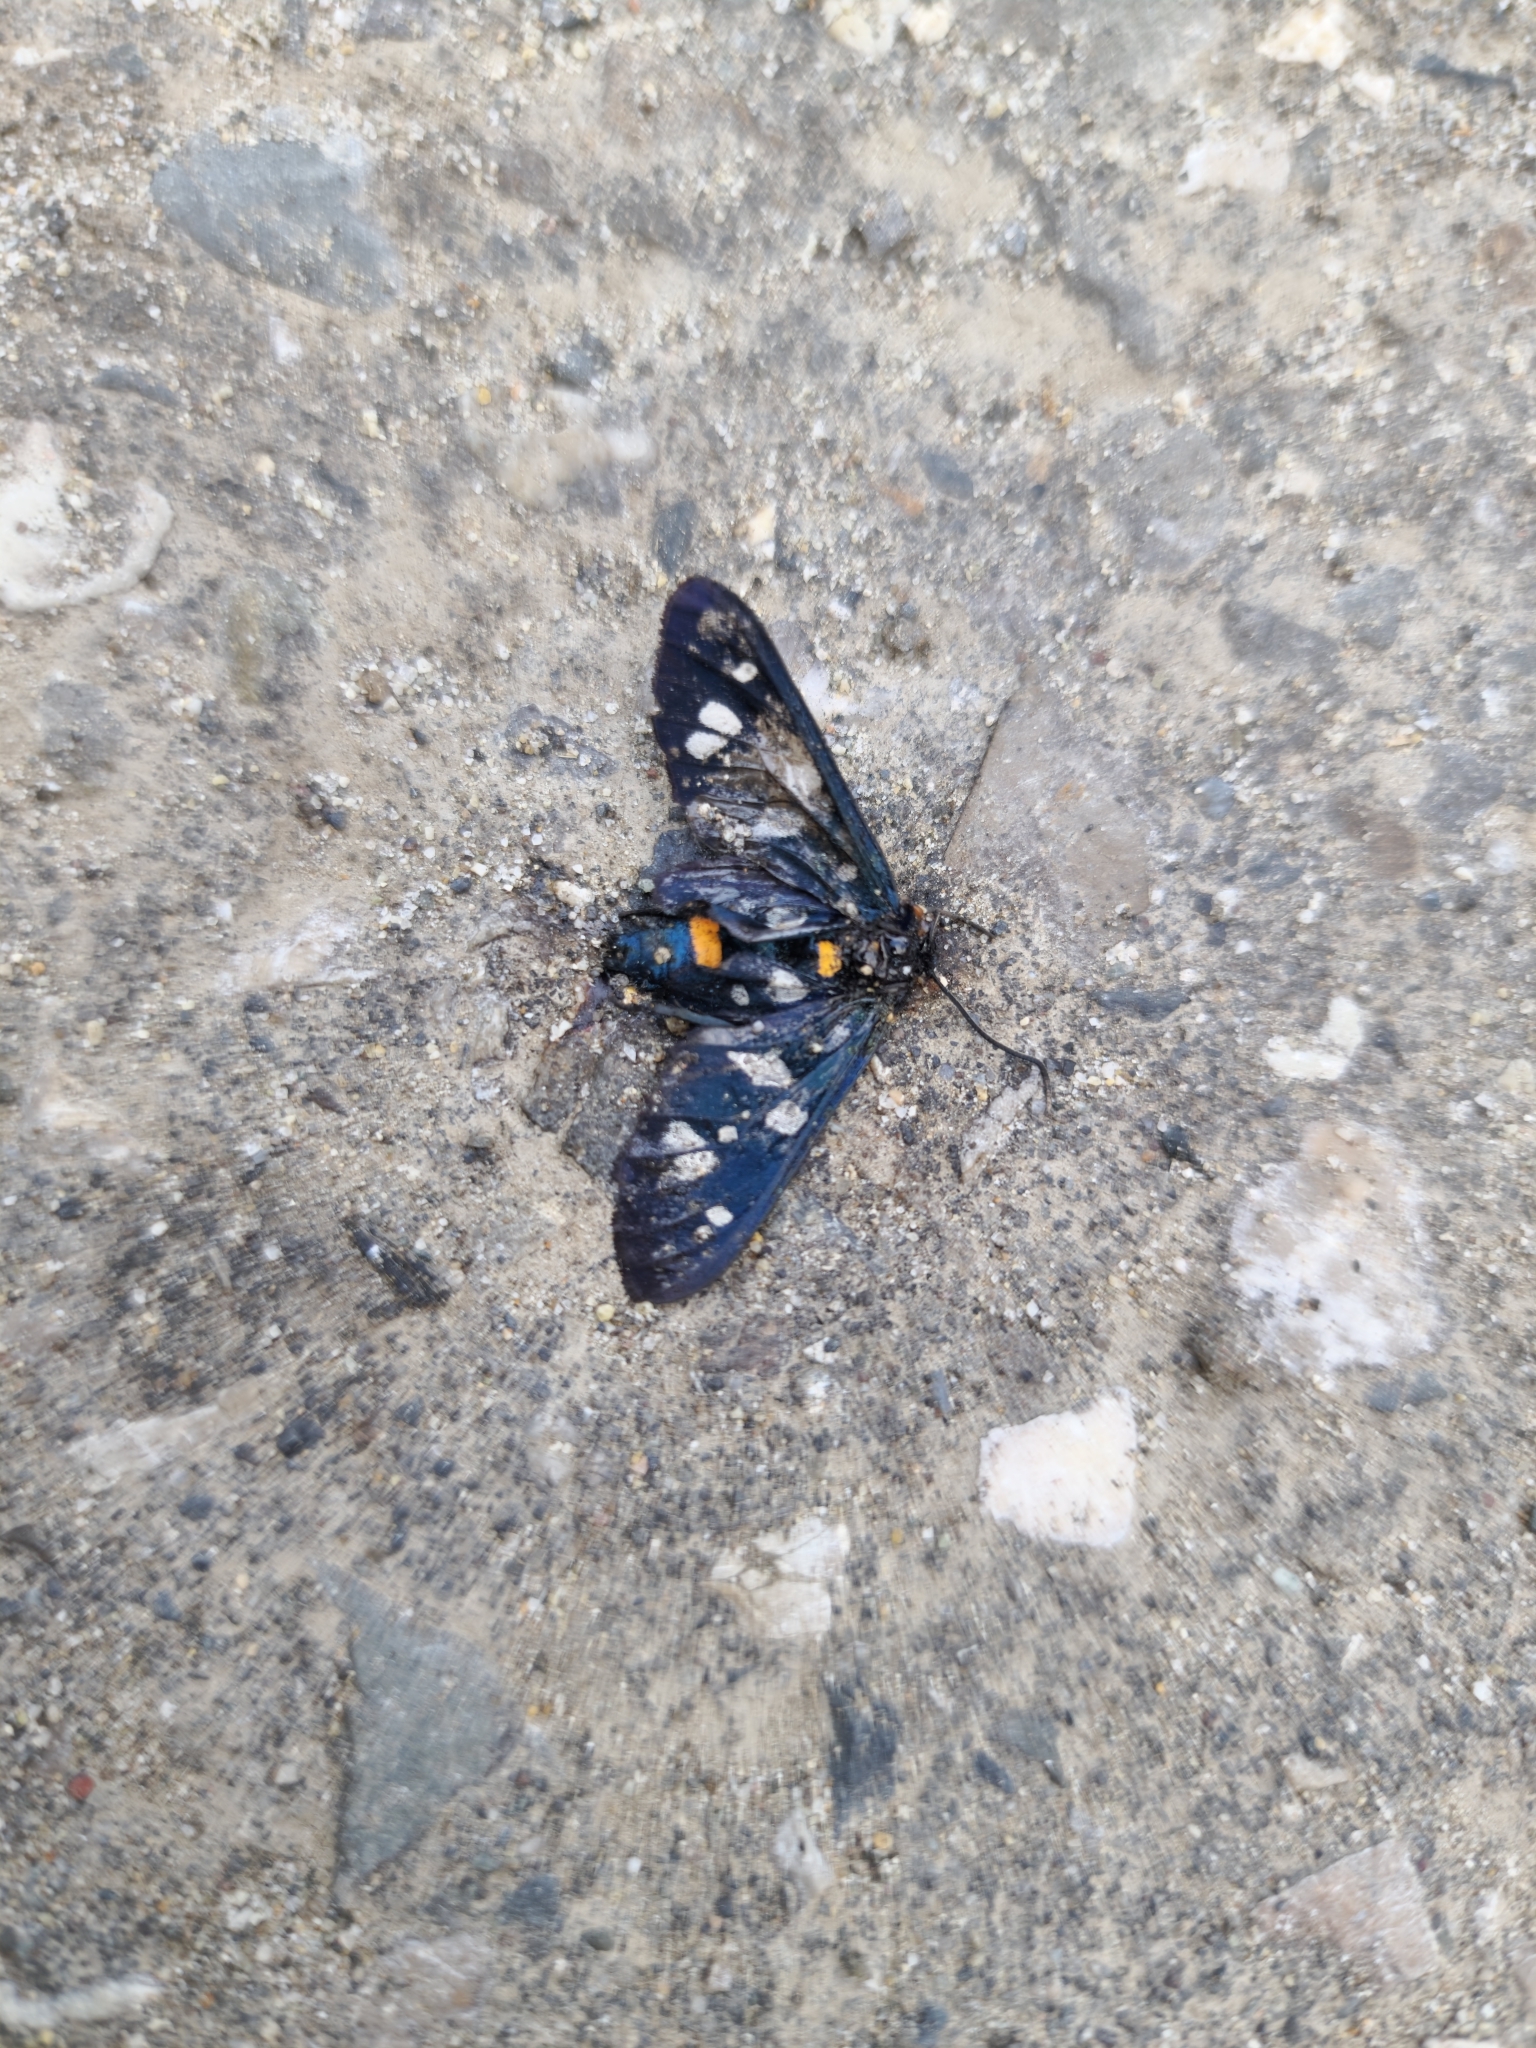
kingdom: Animalia
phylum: Arthropoda
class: Insecta
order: Lepidoptera
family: Erebidae
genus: Amata
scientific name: Amata nigricornis
